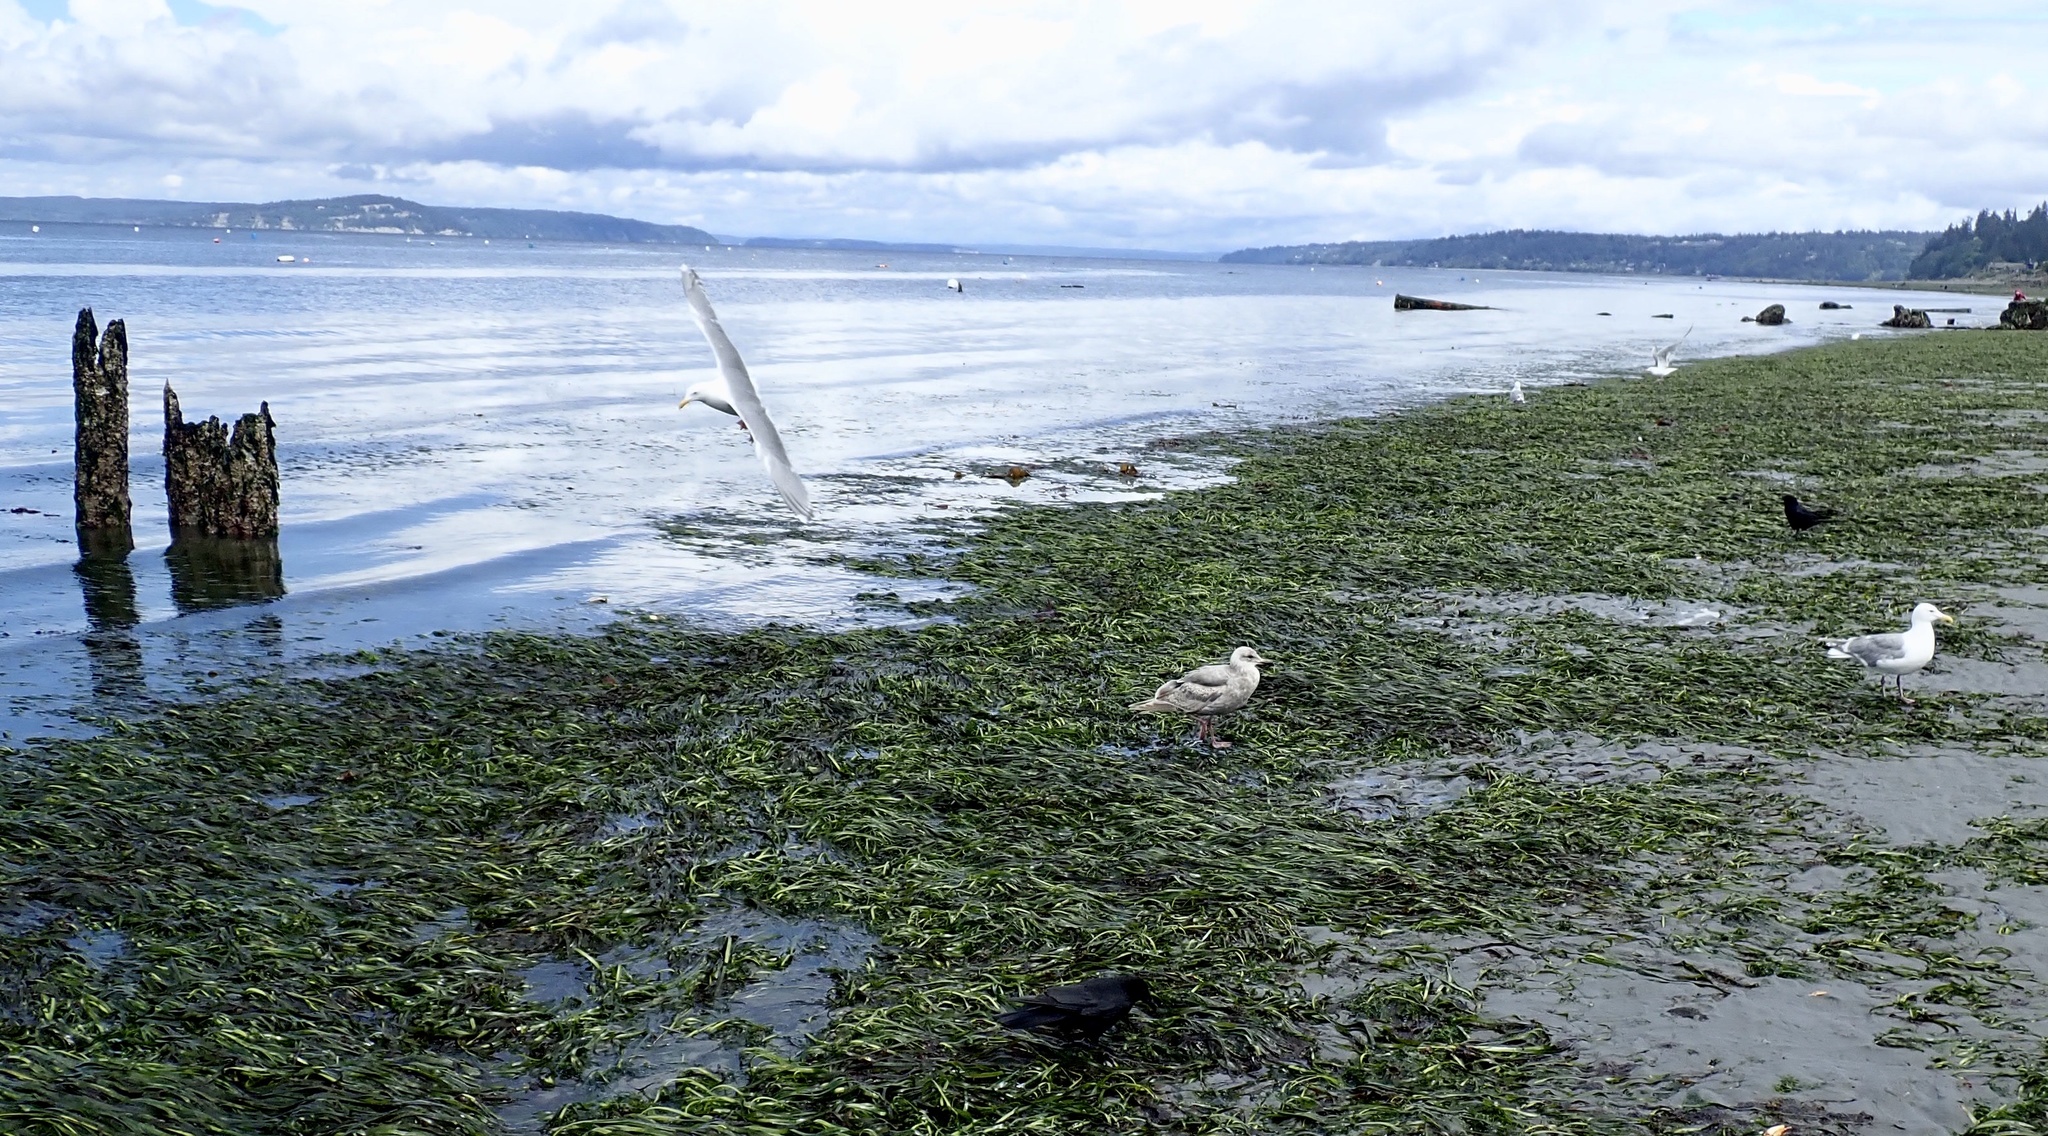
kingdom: Animalia
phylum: Chordata
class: Aves
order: Charadriiformes
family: Laridae
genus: Larus
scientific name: Larus
